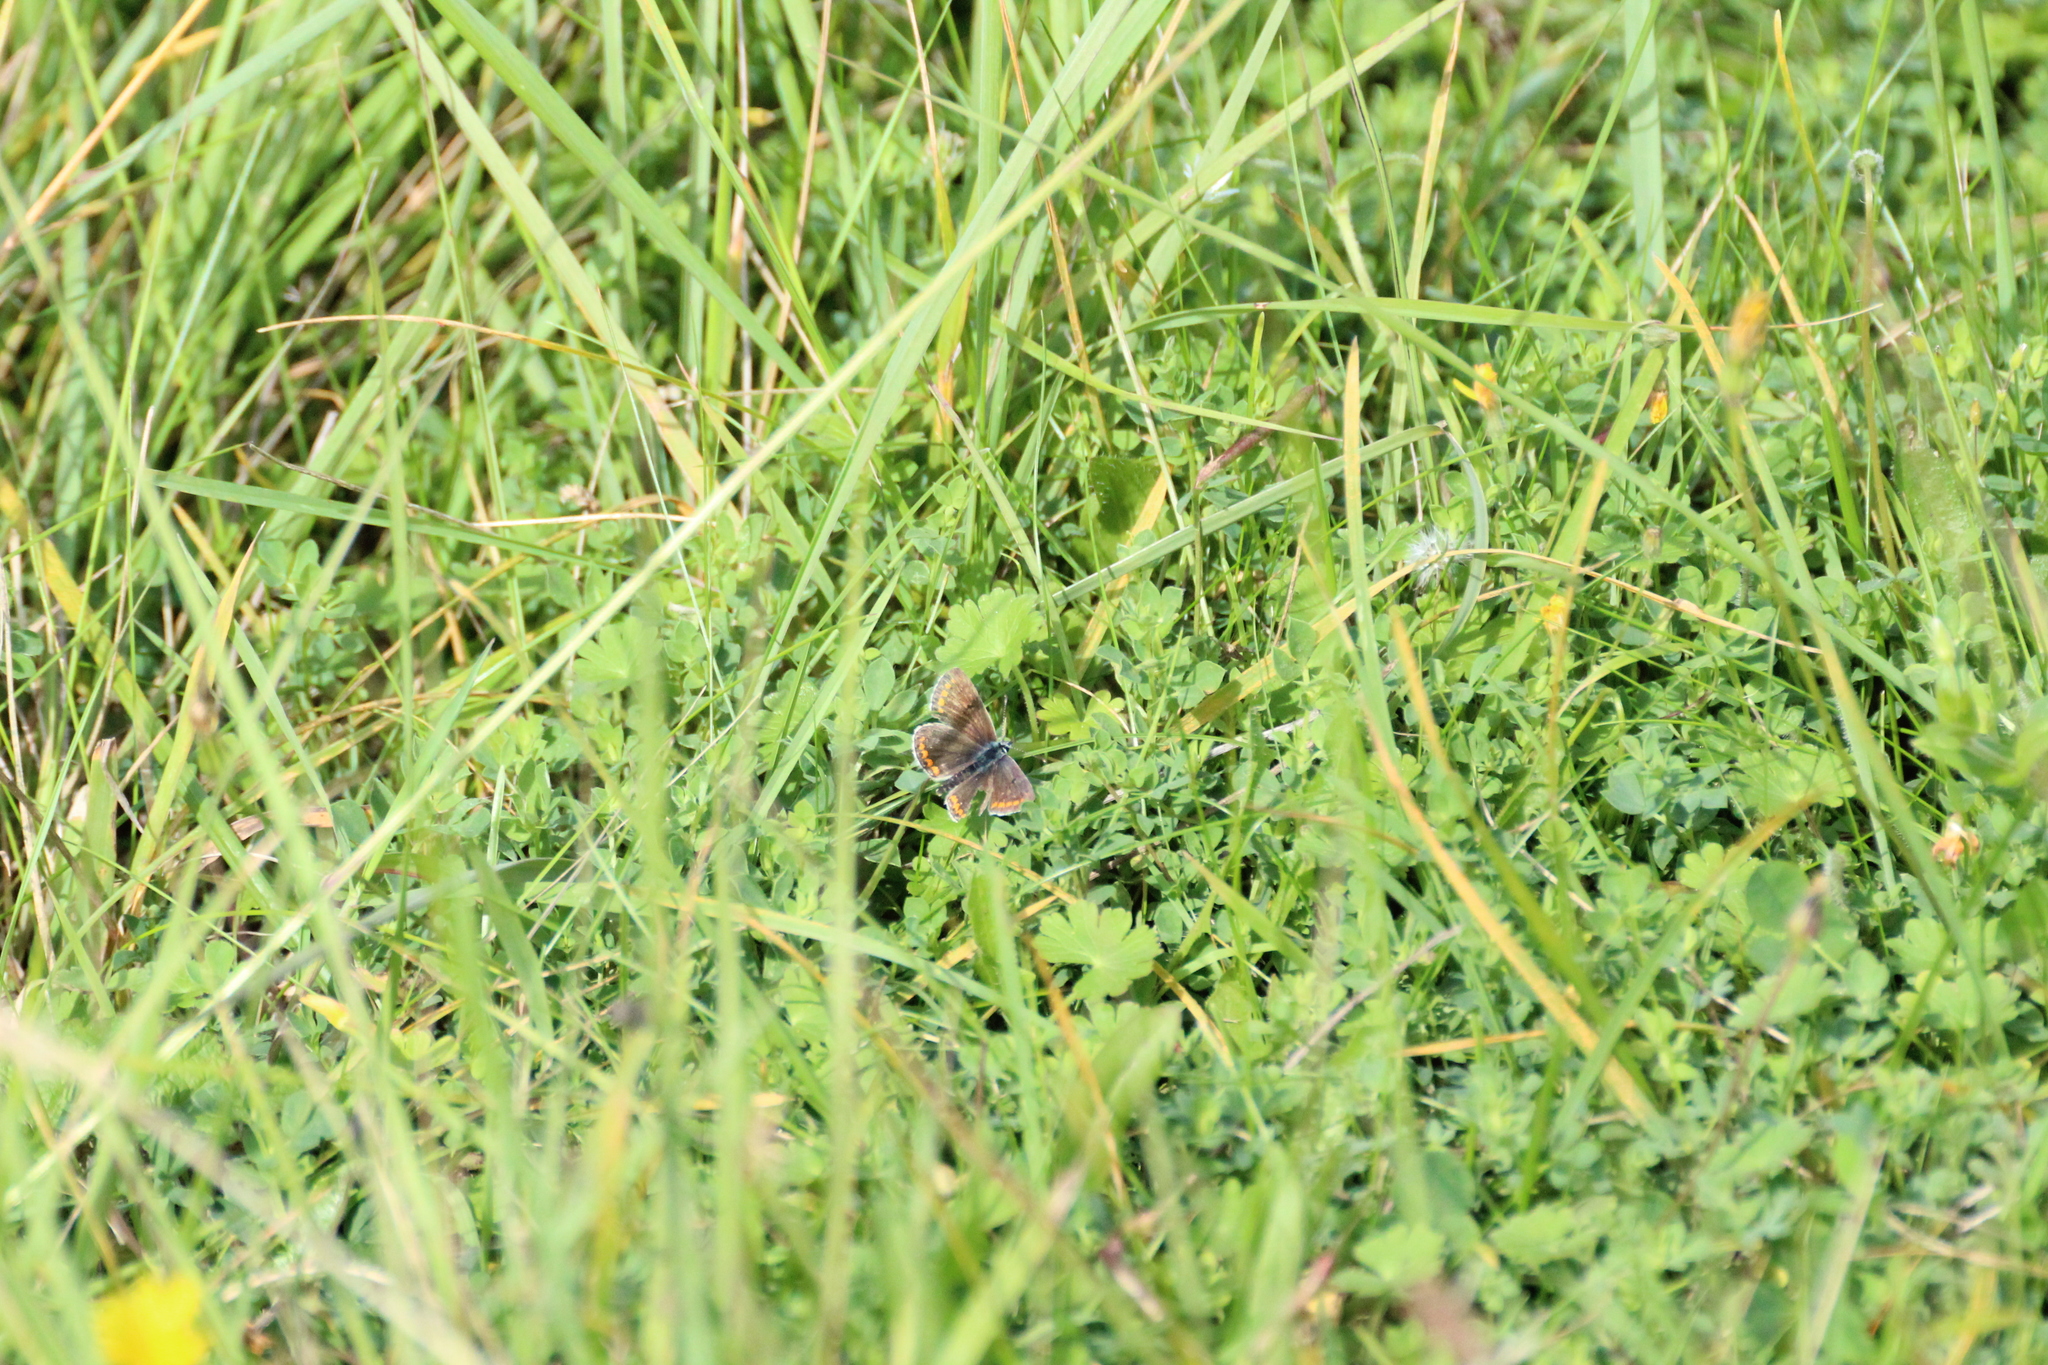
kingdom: Animalia
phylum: Arthropoda
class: Insecta
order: Lepidoptera
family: Lycaenidae
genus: Aricia
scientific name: Aricia agestis
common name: Brown argus
